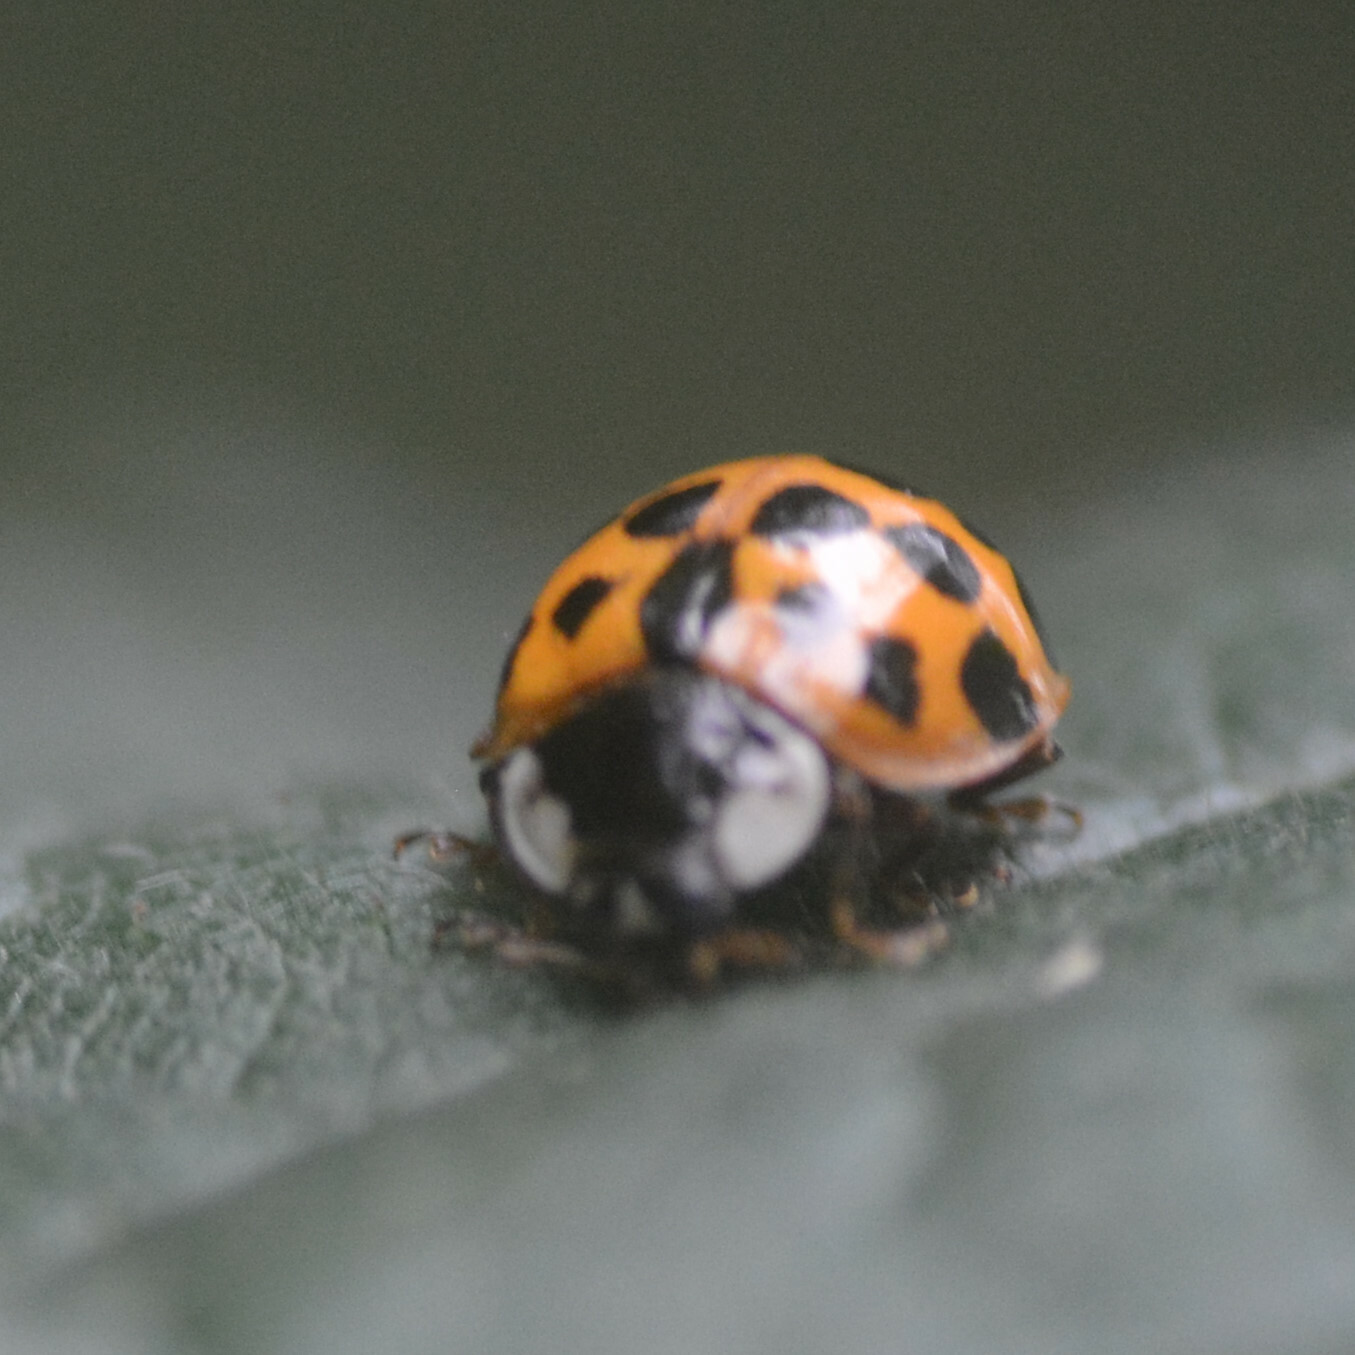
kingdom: Animalia
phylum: Arthropoda
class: Insecta
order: Coleoptera
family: Coccinellidae
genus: Harmonia
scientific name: Harmonia axyridis
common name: Harlequin ladybird
